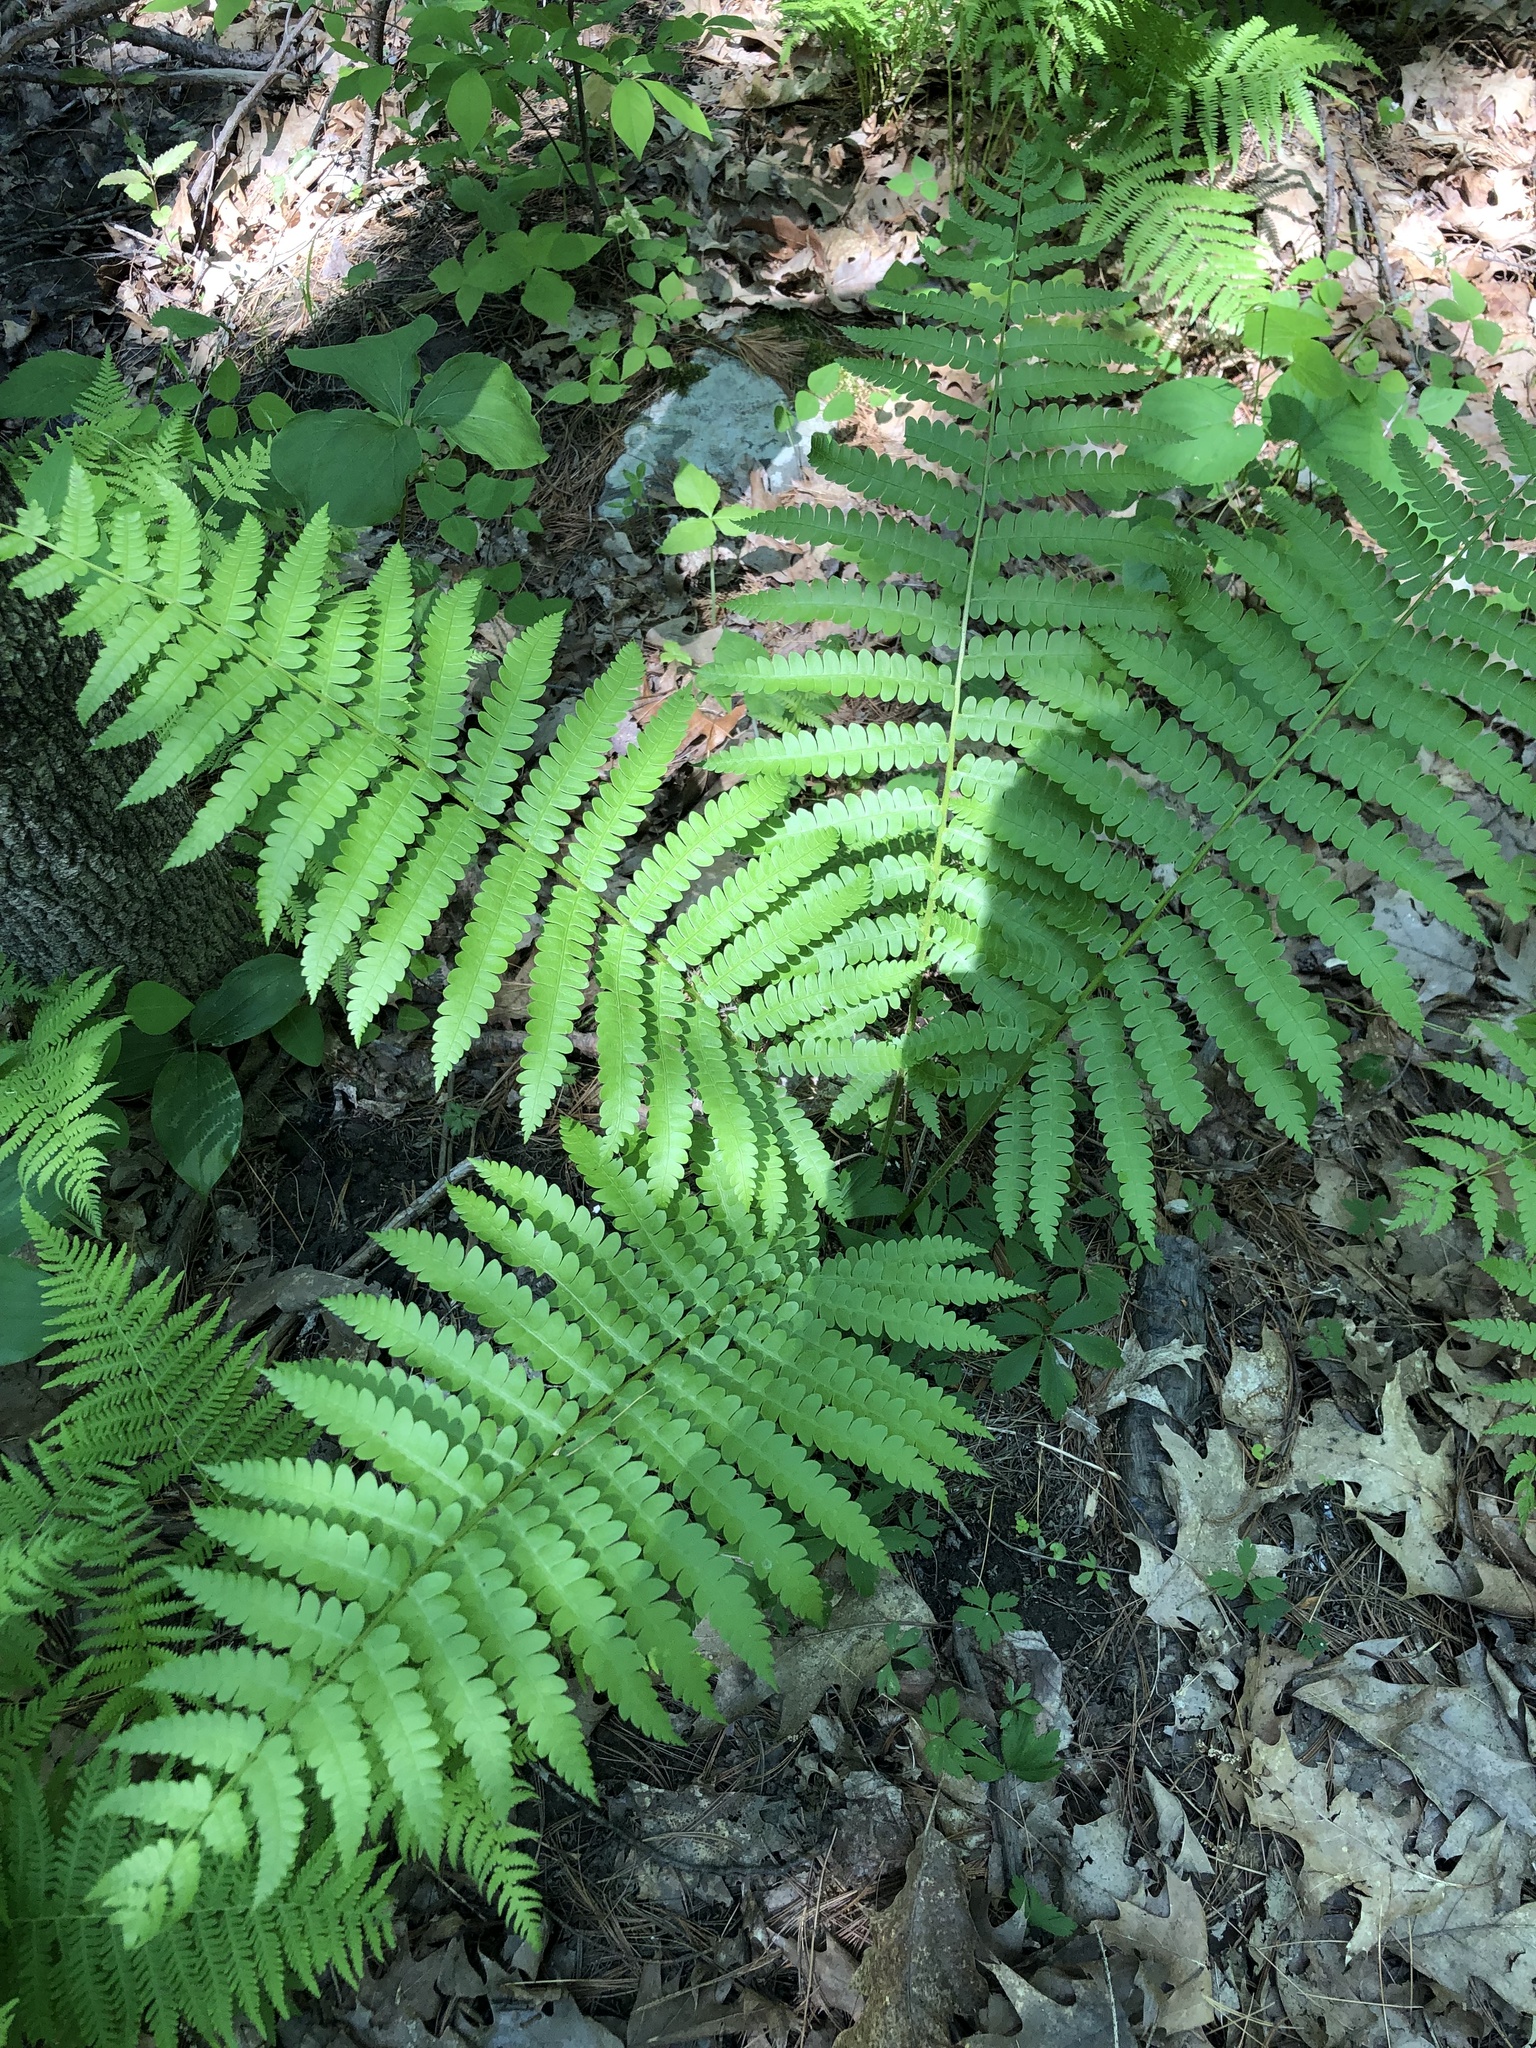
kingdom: Plantae
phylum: Tracheophyta
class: Polypodiopsida
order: Osmundales
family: Osmundaceae
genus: Osmundastrum
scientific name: Osmundastrum cinnamomeum
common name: Cinnamon fern
